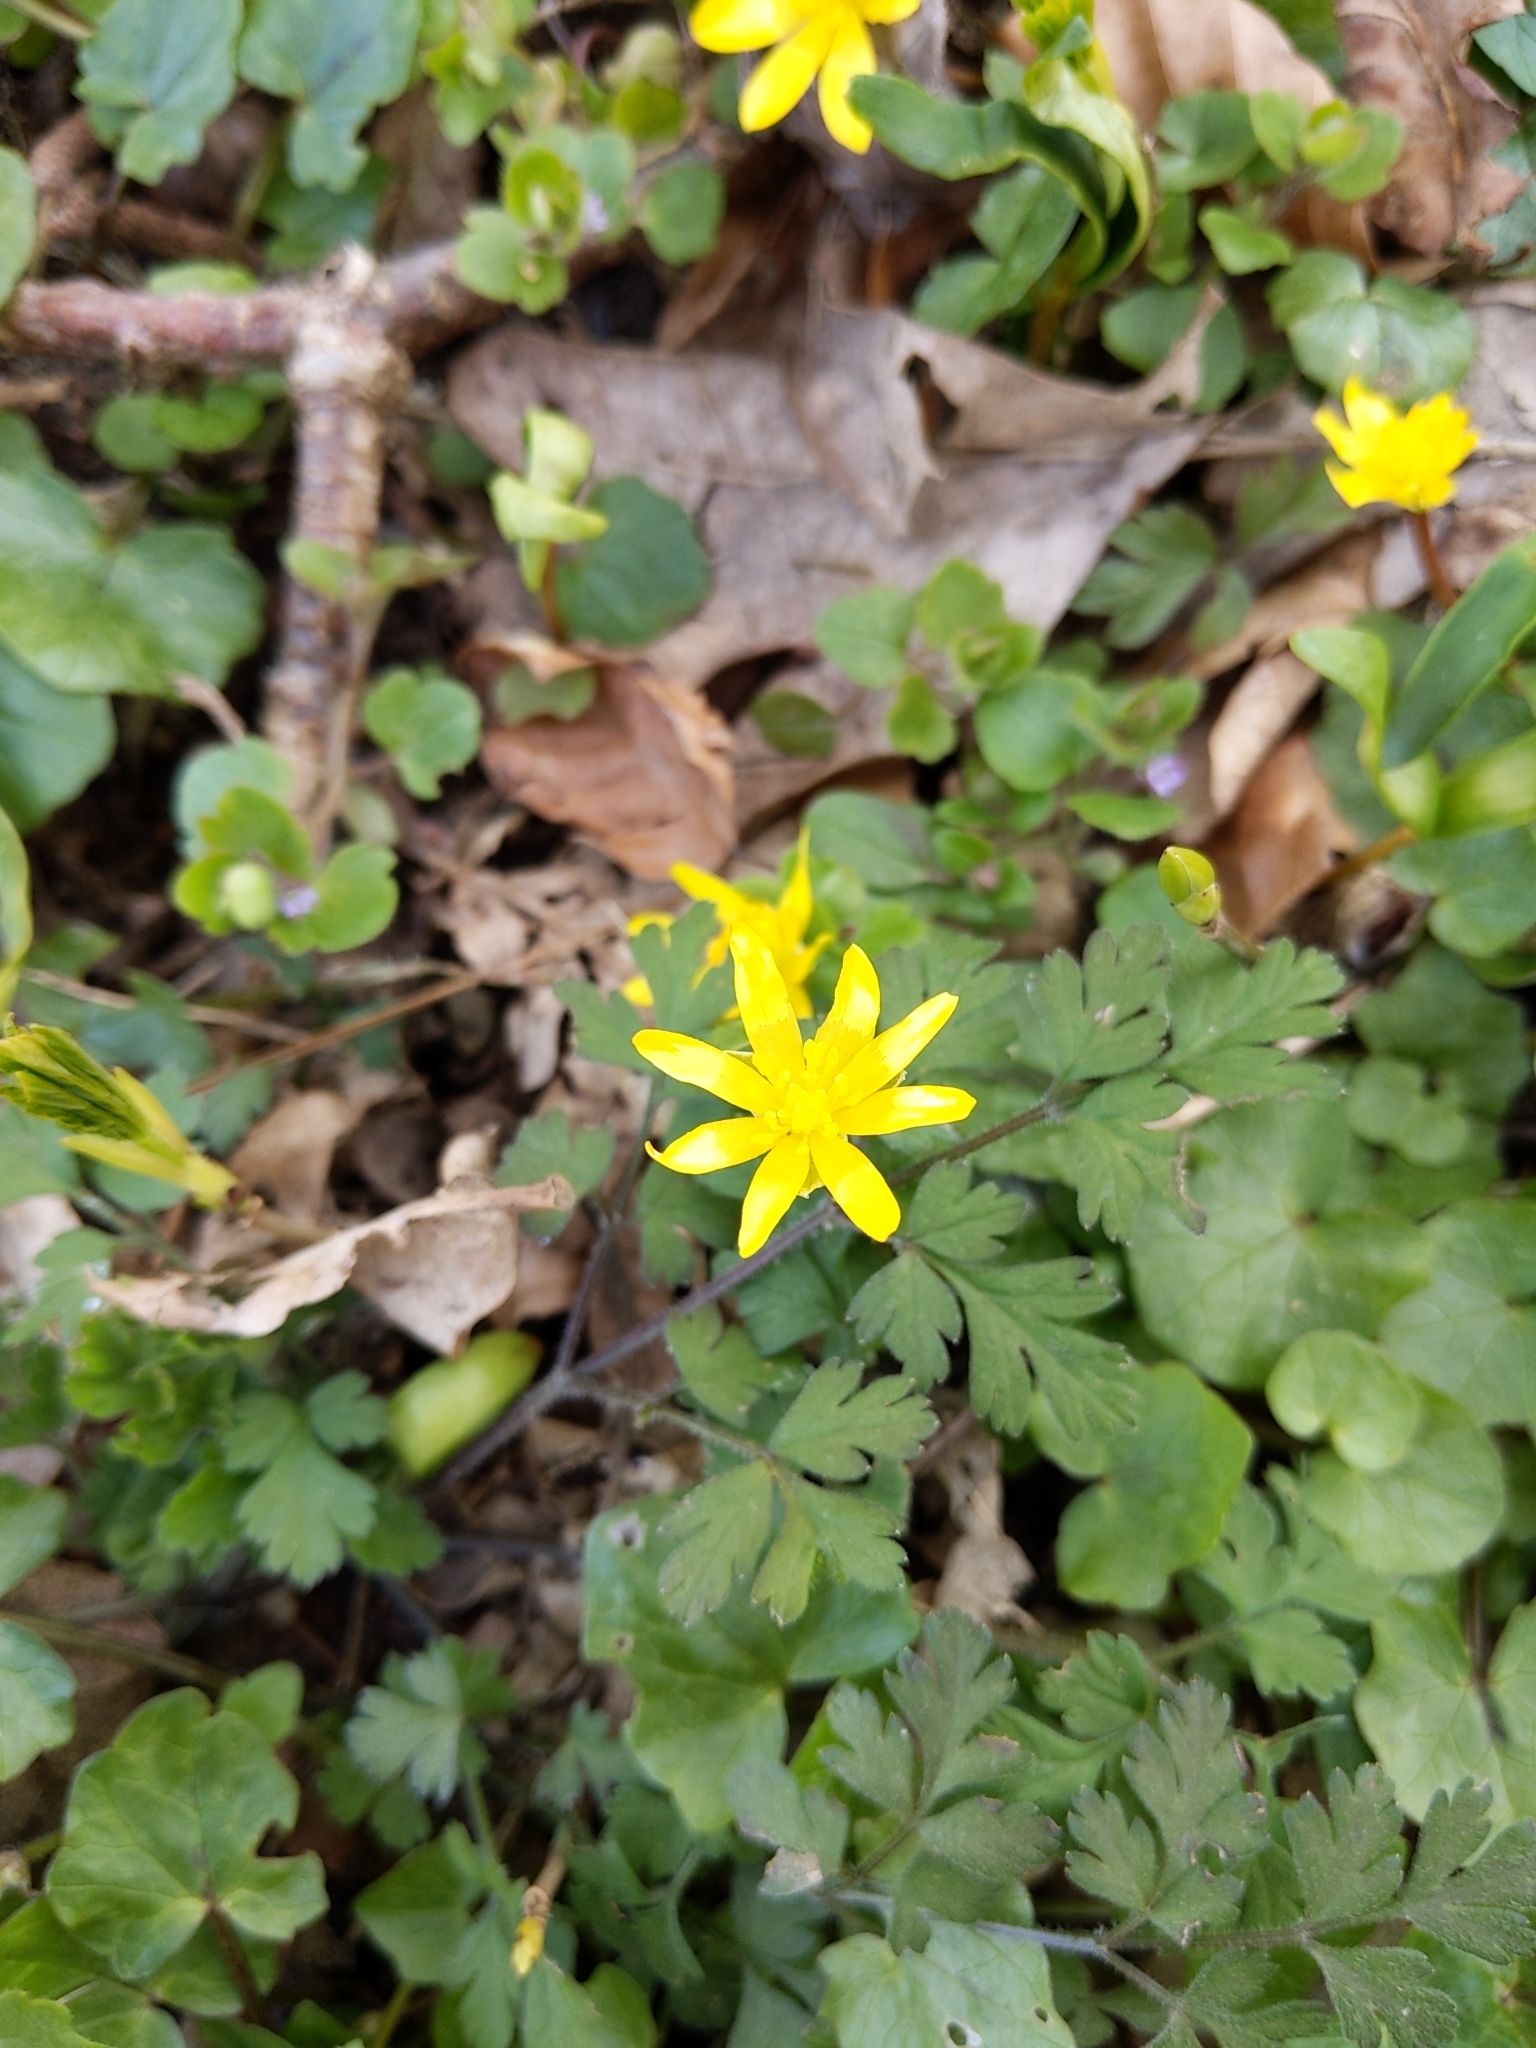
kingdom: Plantae
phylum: Tracheophyta
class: Magnoliopsida
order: Ranunculales
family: Ranunculaceae
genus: Ficaria
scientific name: Ficaria verna
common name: Lesser celandine
